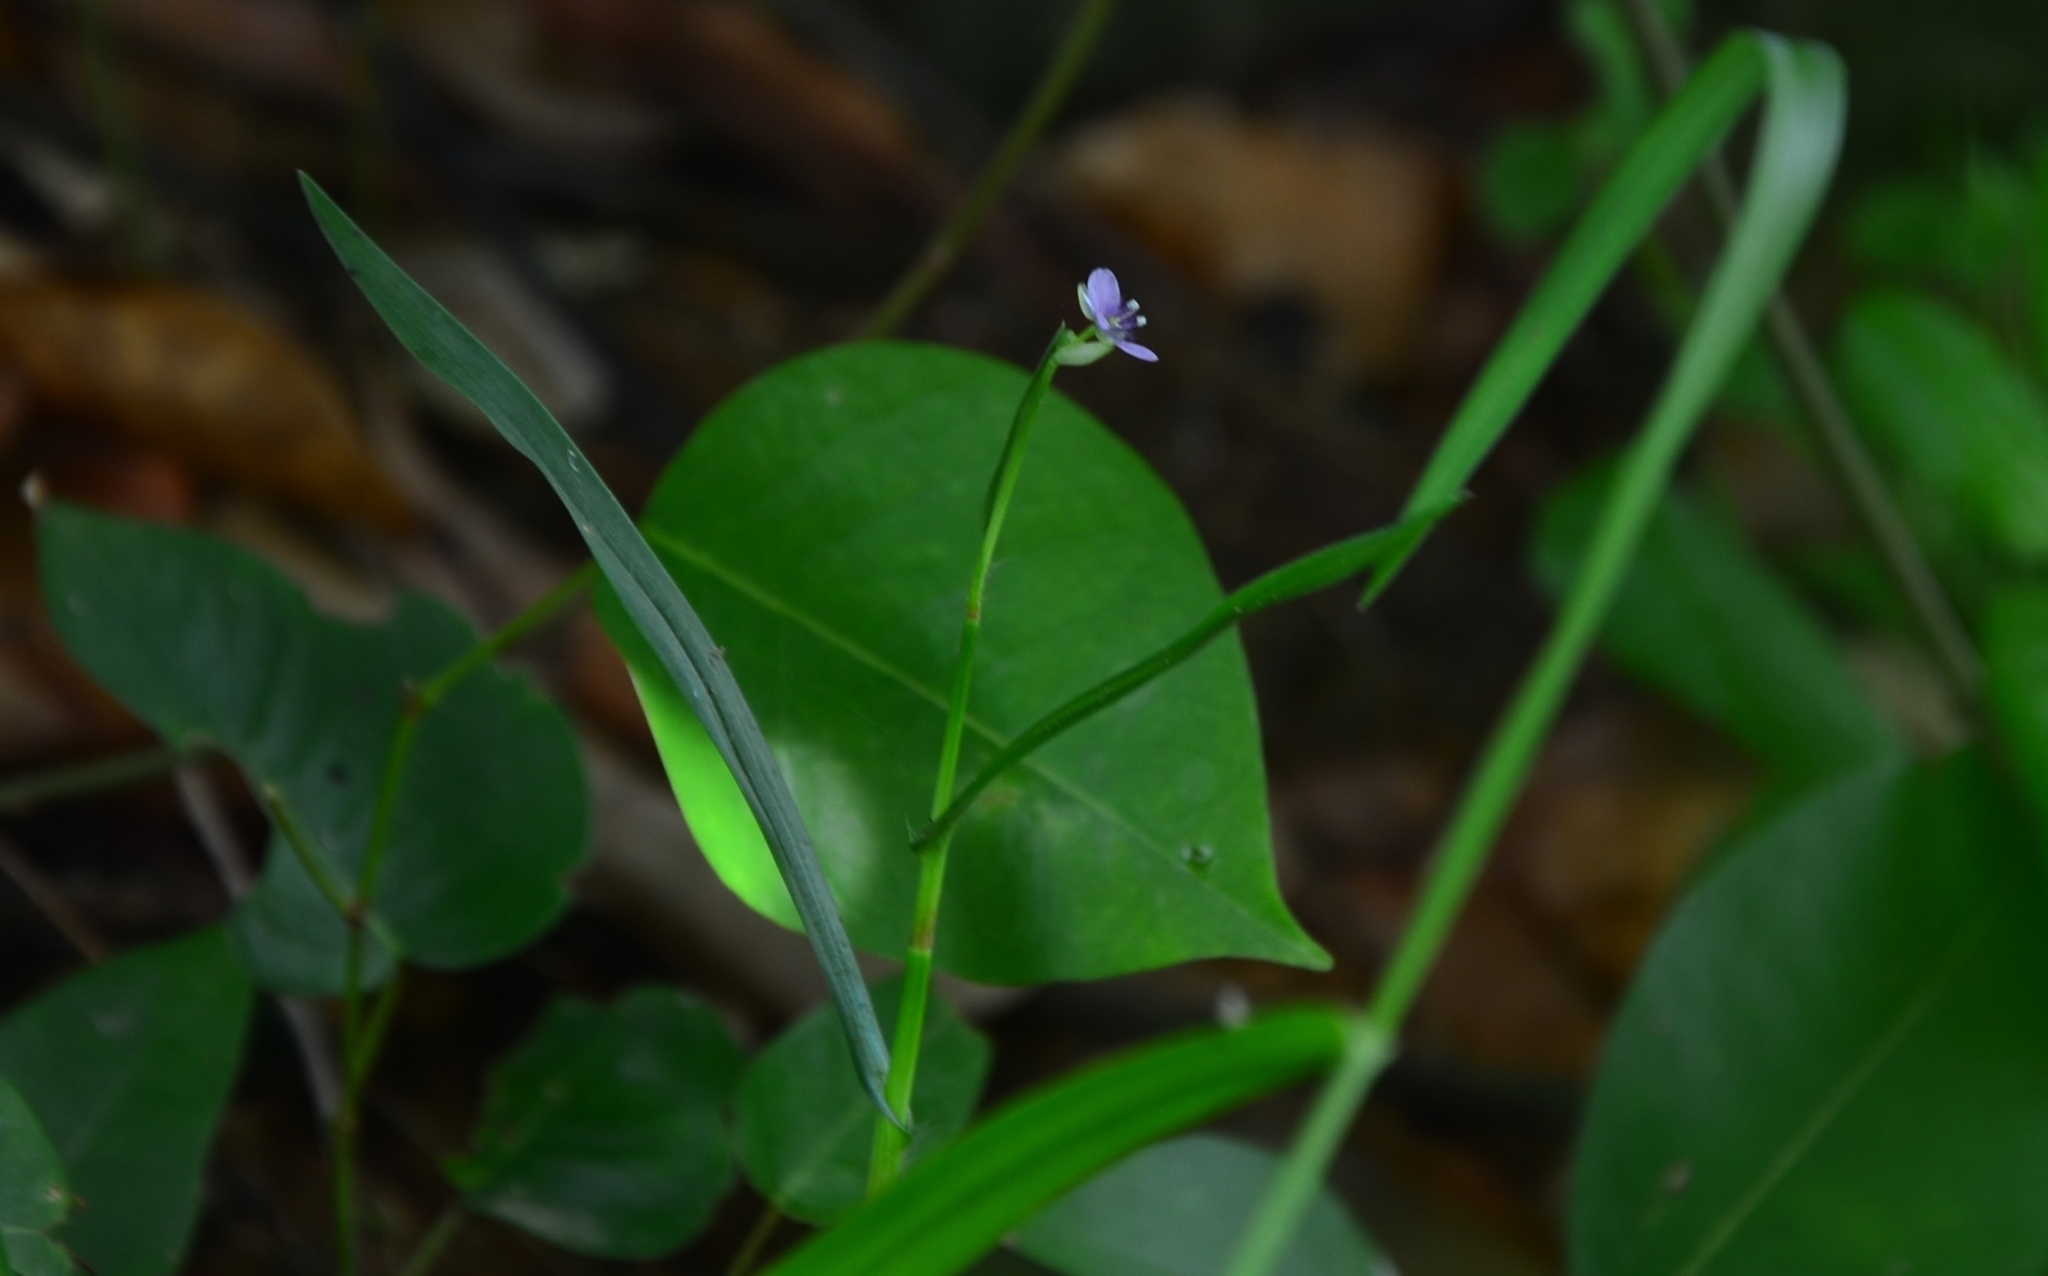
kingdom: Plantae
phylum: Tracheophyta
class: Liliopsida
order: Commelinales
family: Commelinaceae
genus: Murdannia
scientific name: Murdannia vaginata
